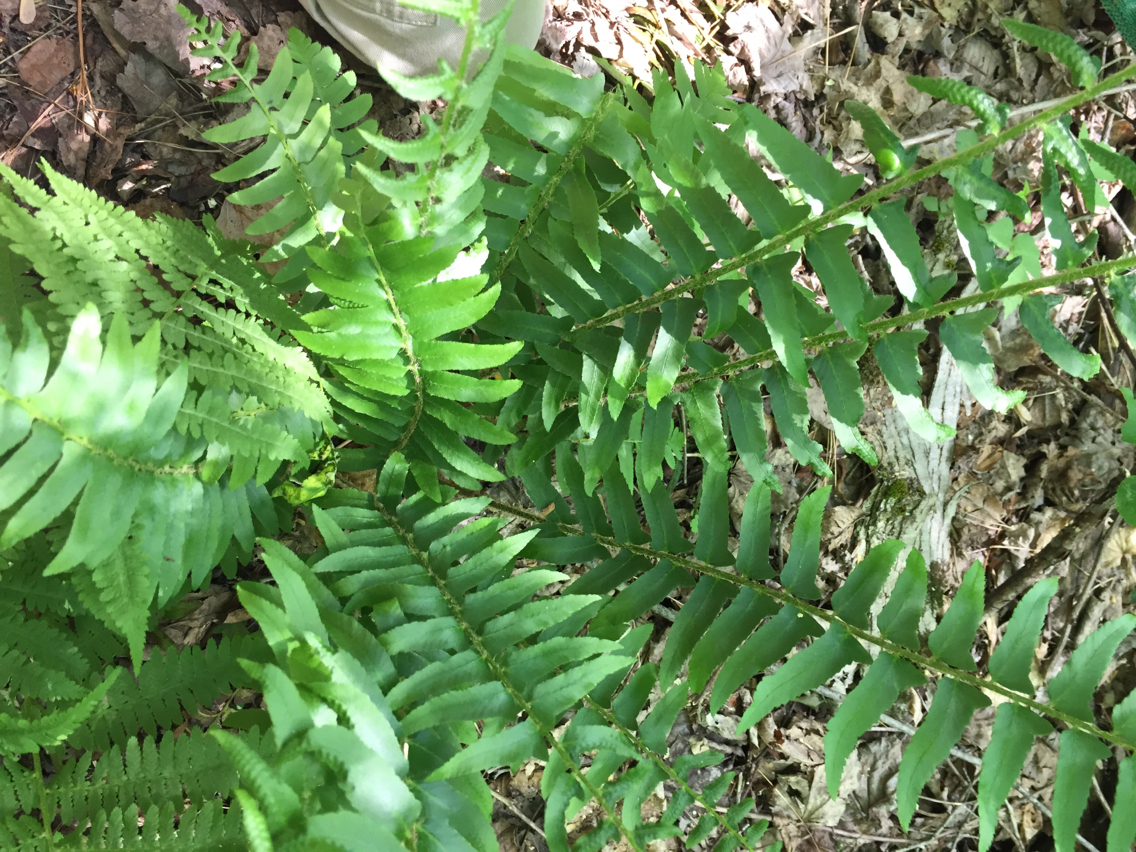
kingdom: Plantae
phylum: Tracheophyta
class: Polypodiopsida
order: Polypodiales
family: Dryopteridaceae
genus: Polystichum
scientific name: Polystichum acrostichoides
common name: Christmas fern
